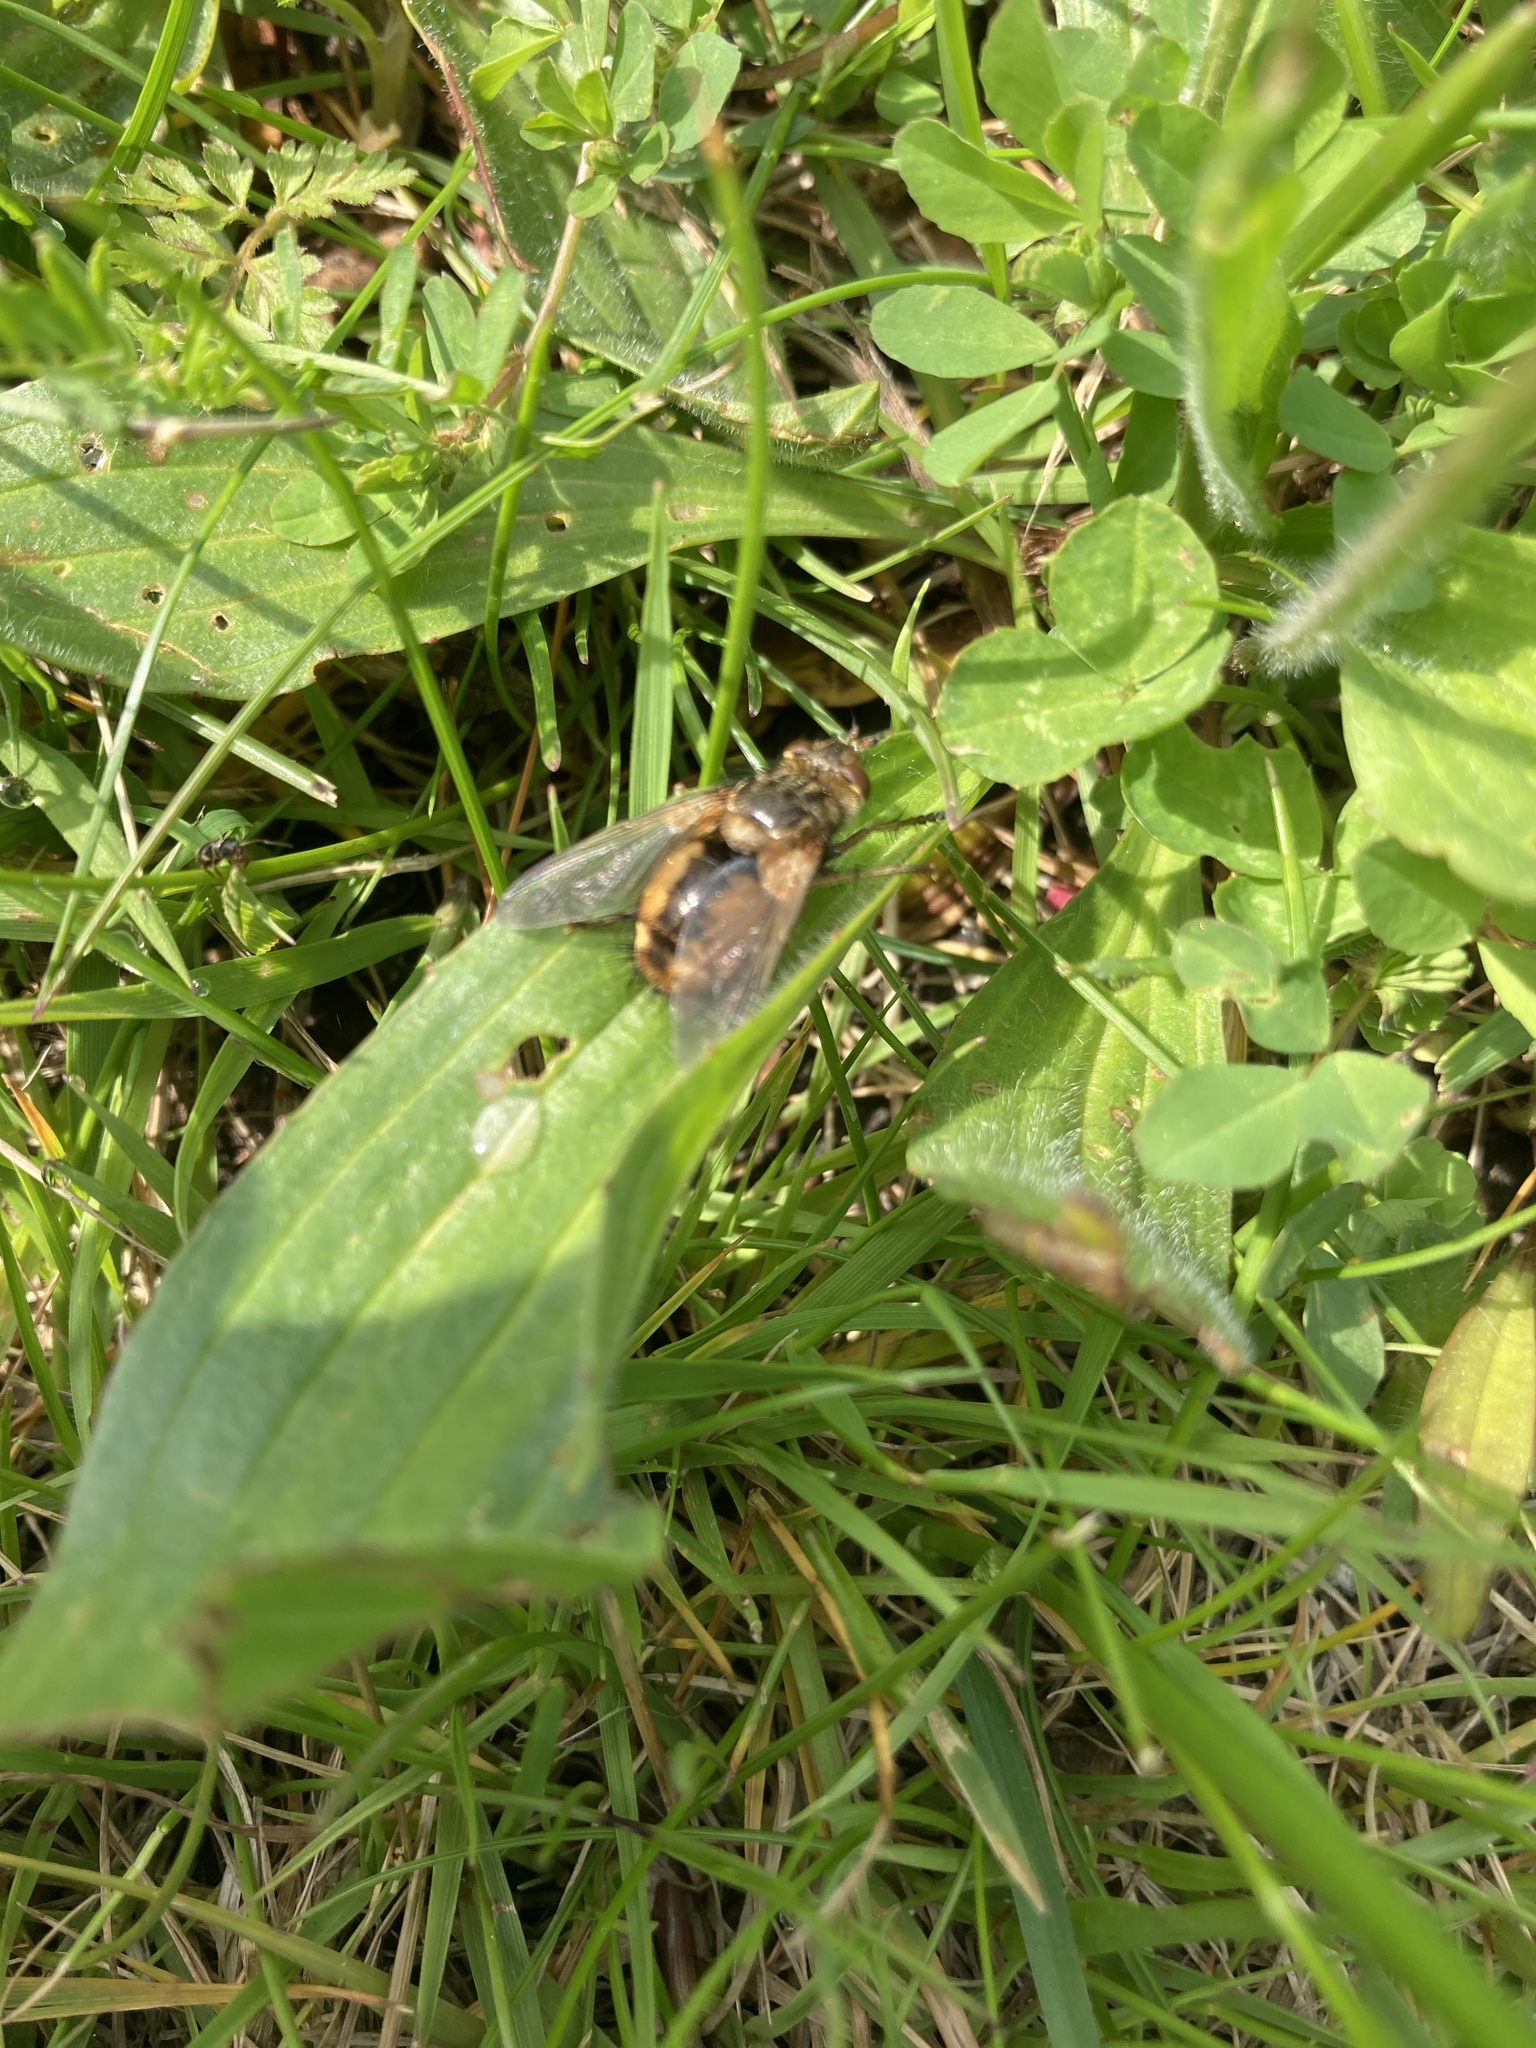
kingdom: Animalia
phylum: Arthropoda
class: Insecta
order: Diptera
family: Tachinidae
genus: Tachina
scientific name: Tachina fera
